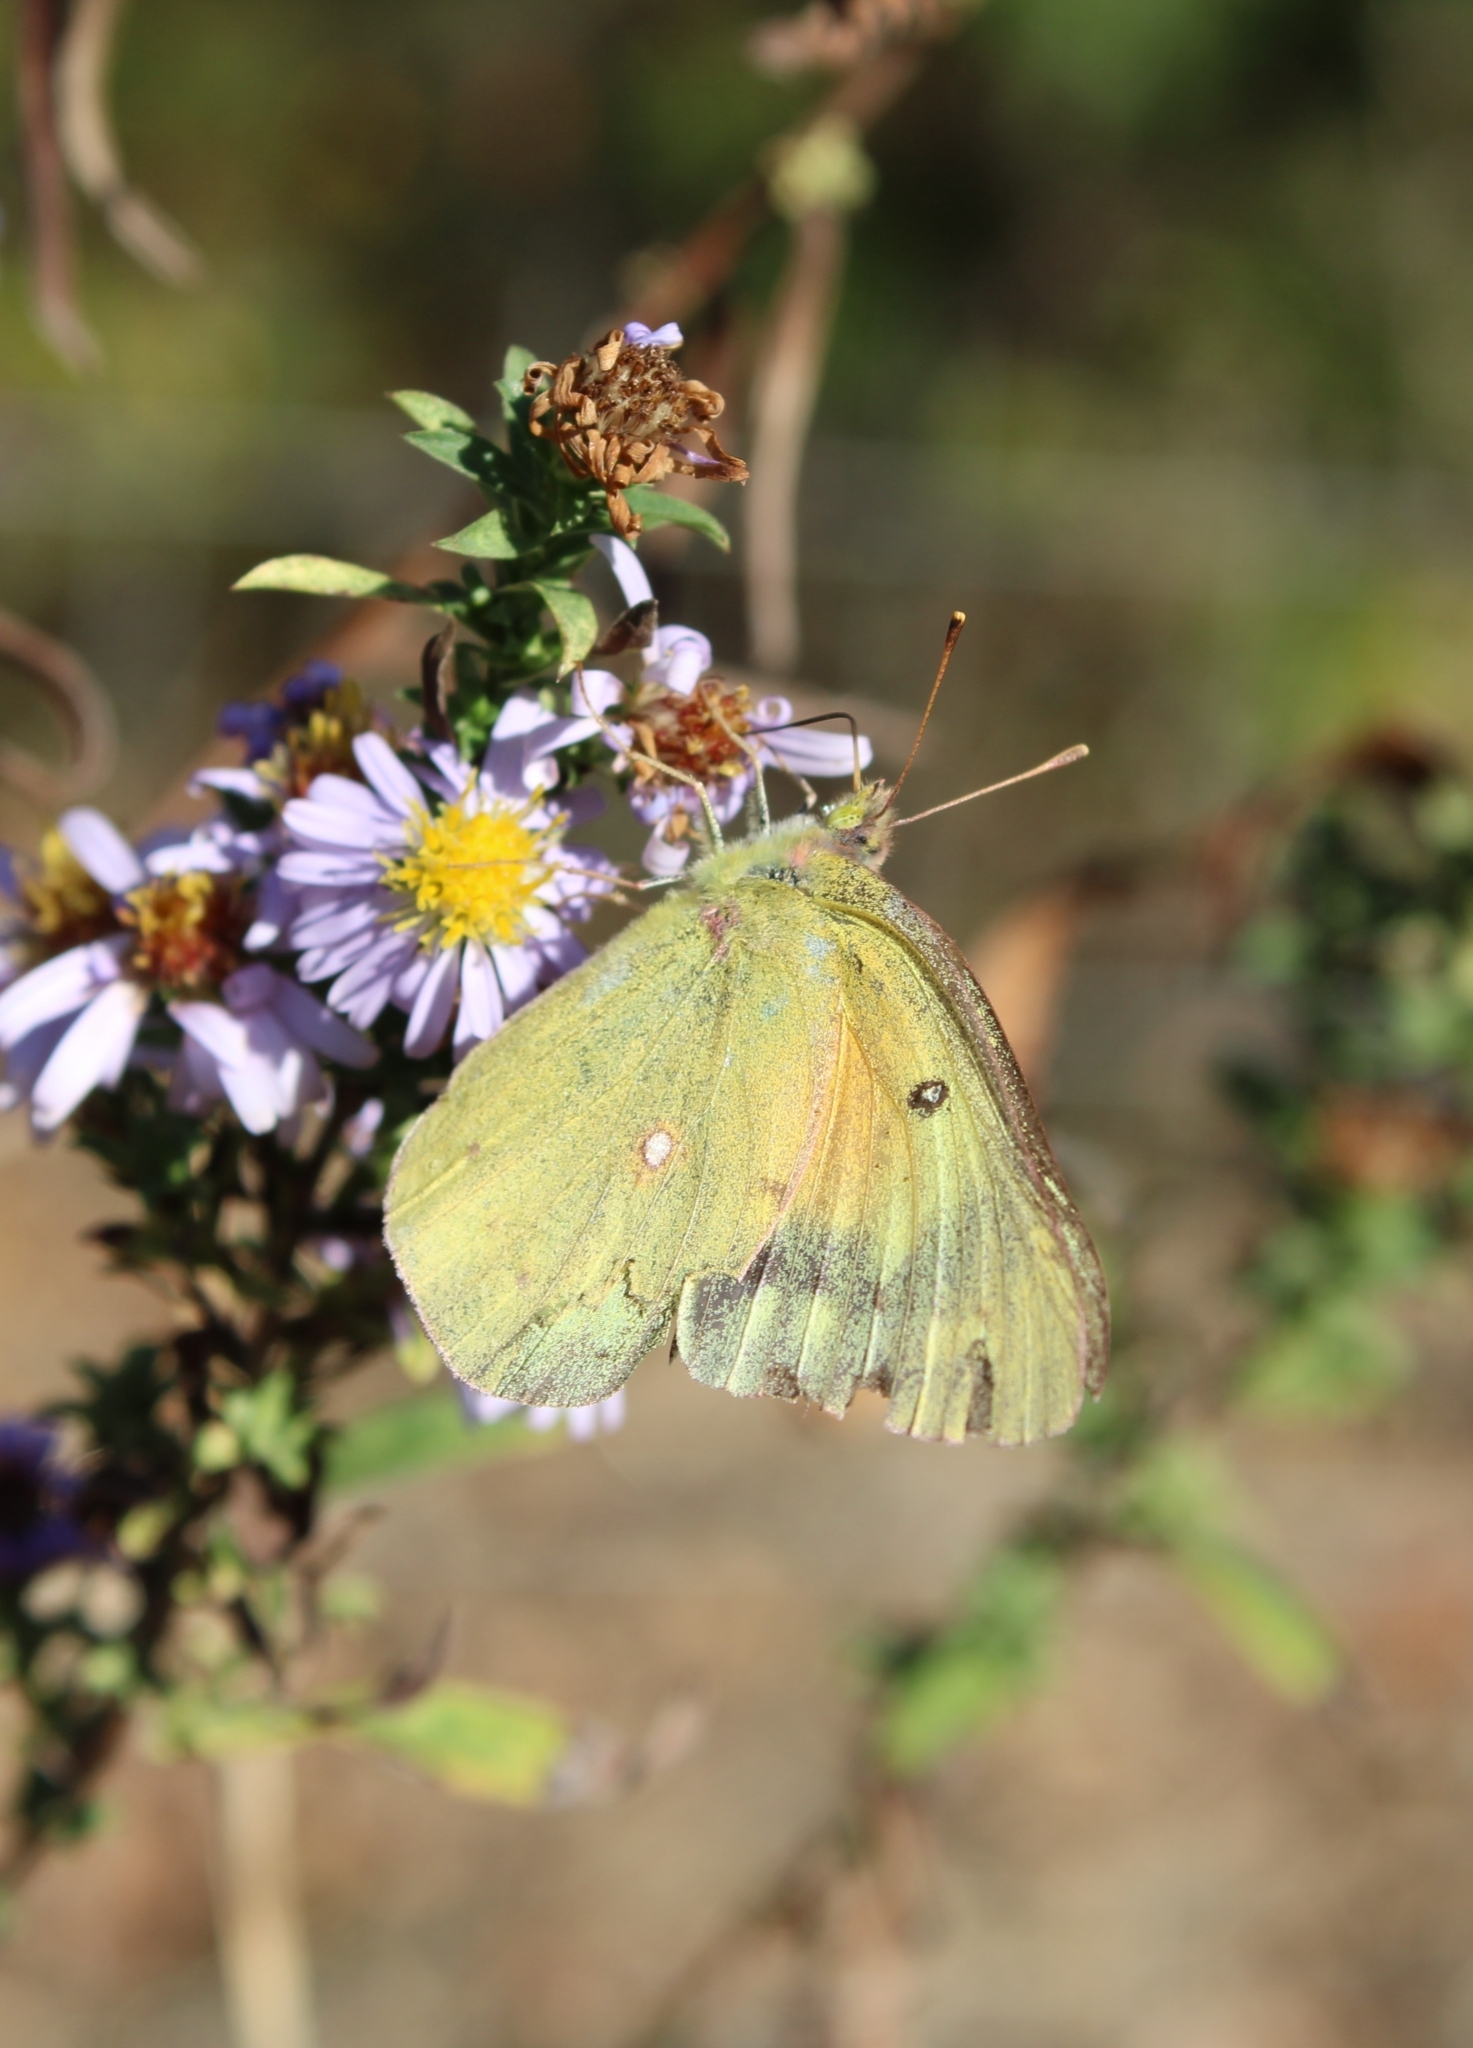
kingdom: Animalia
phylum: Arthropoda
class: Insecta
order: Lepidoptera
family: Pieridae
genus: Colias
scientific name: Colias eurytheme
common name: Alfalfa butterfly
